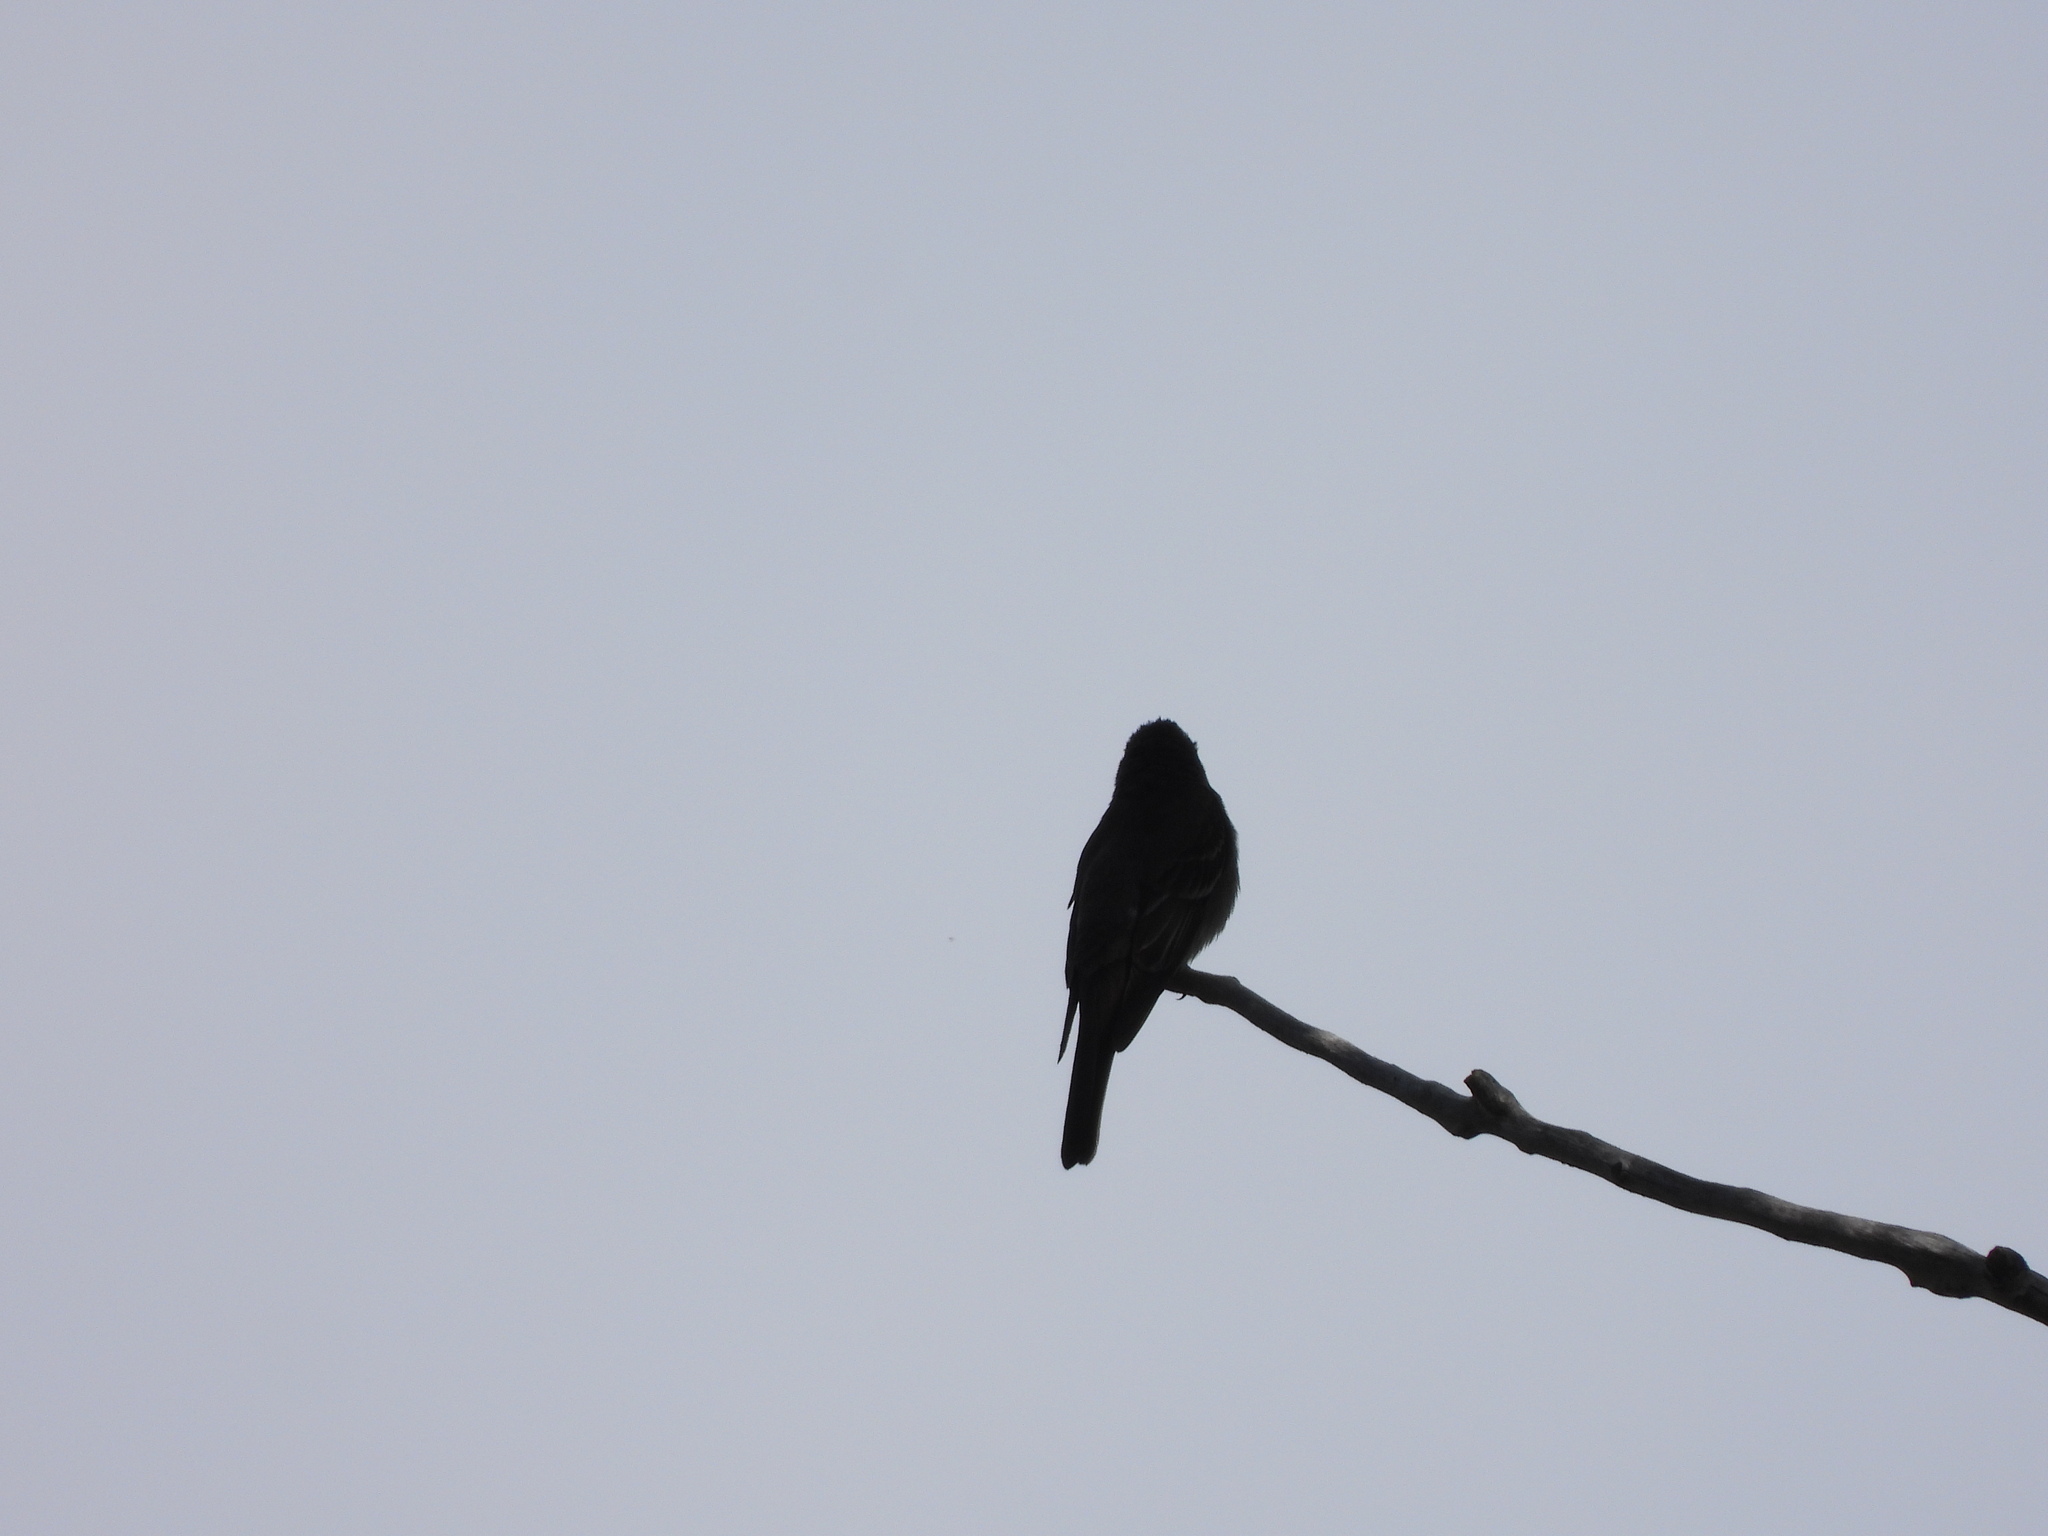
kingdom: Animalia
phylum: Chordata
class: Aves
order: Passeriformes
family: Tyrannidae
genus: Contopus
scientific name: Contopus sordidulus
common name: Western wood-pewee
